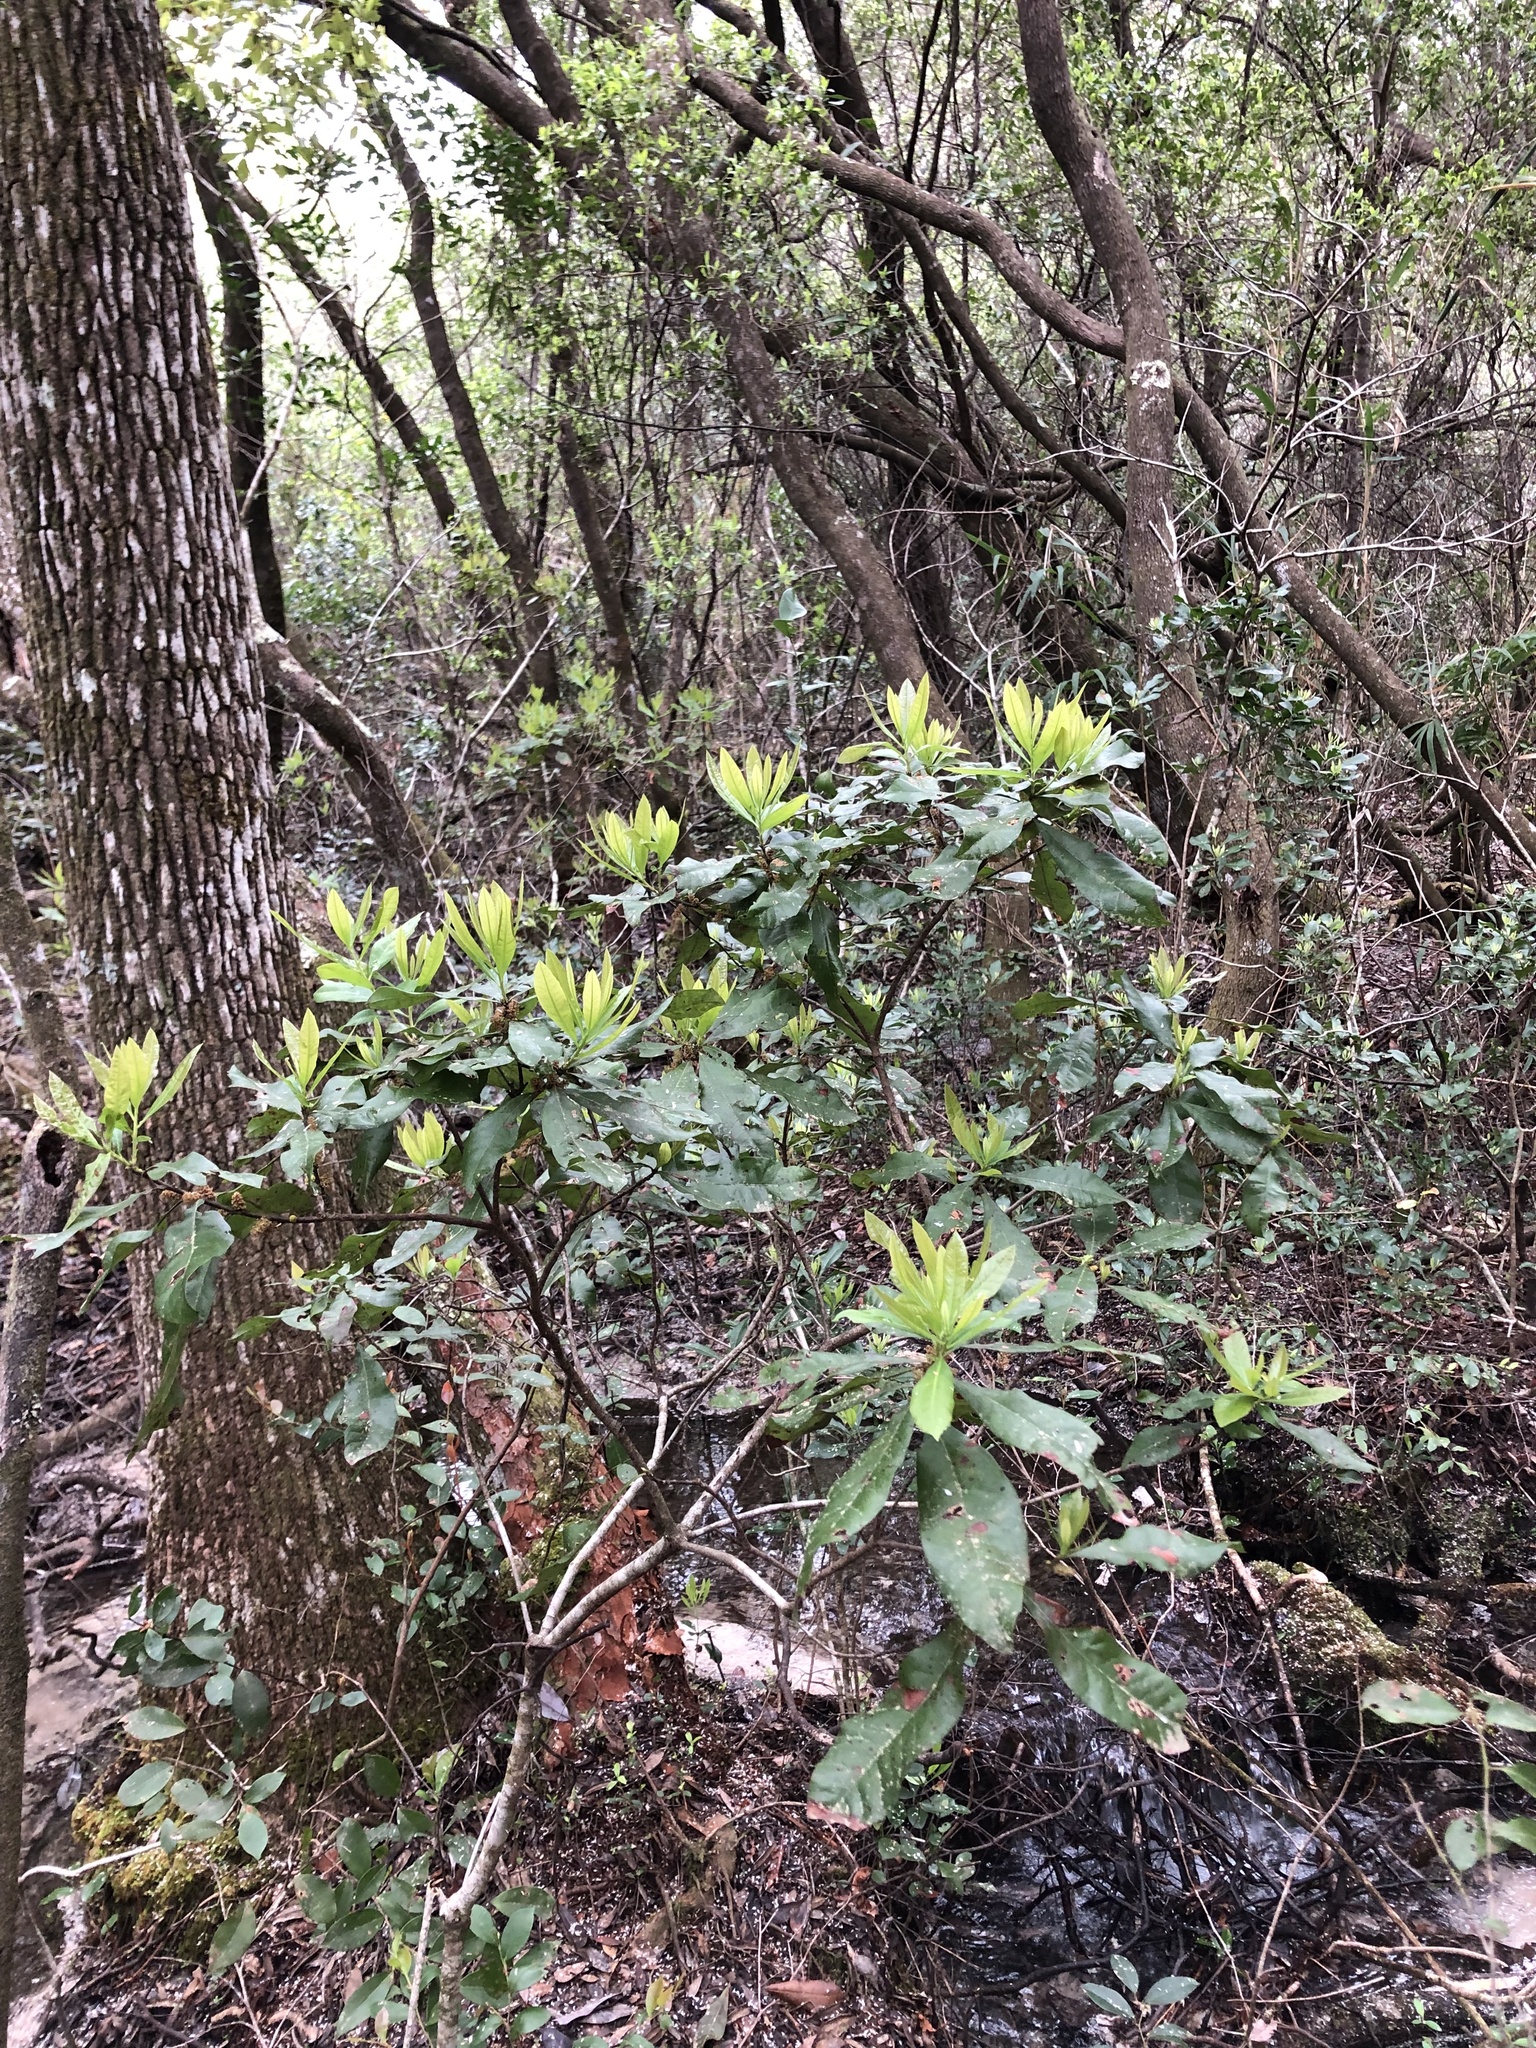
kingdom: Plantae
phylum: Tracheophyta
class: Magnoliopsida
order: Fagales
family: Myricaceae
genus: Morella
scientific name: Morella caroliniensis
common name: Evergreen bayberry
